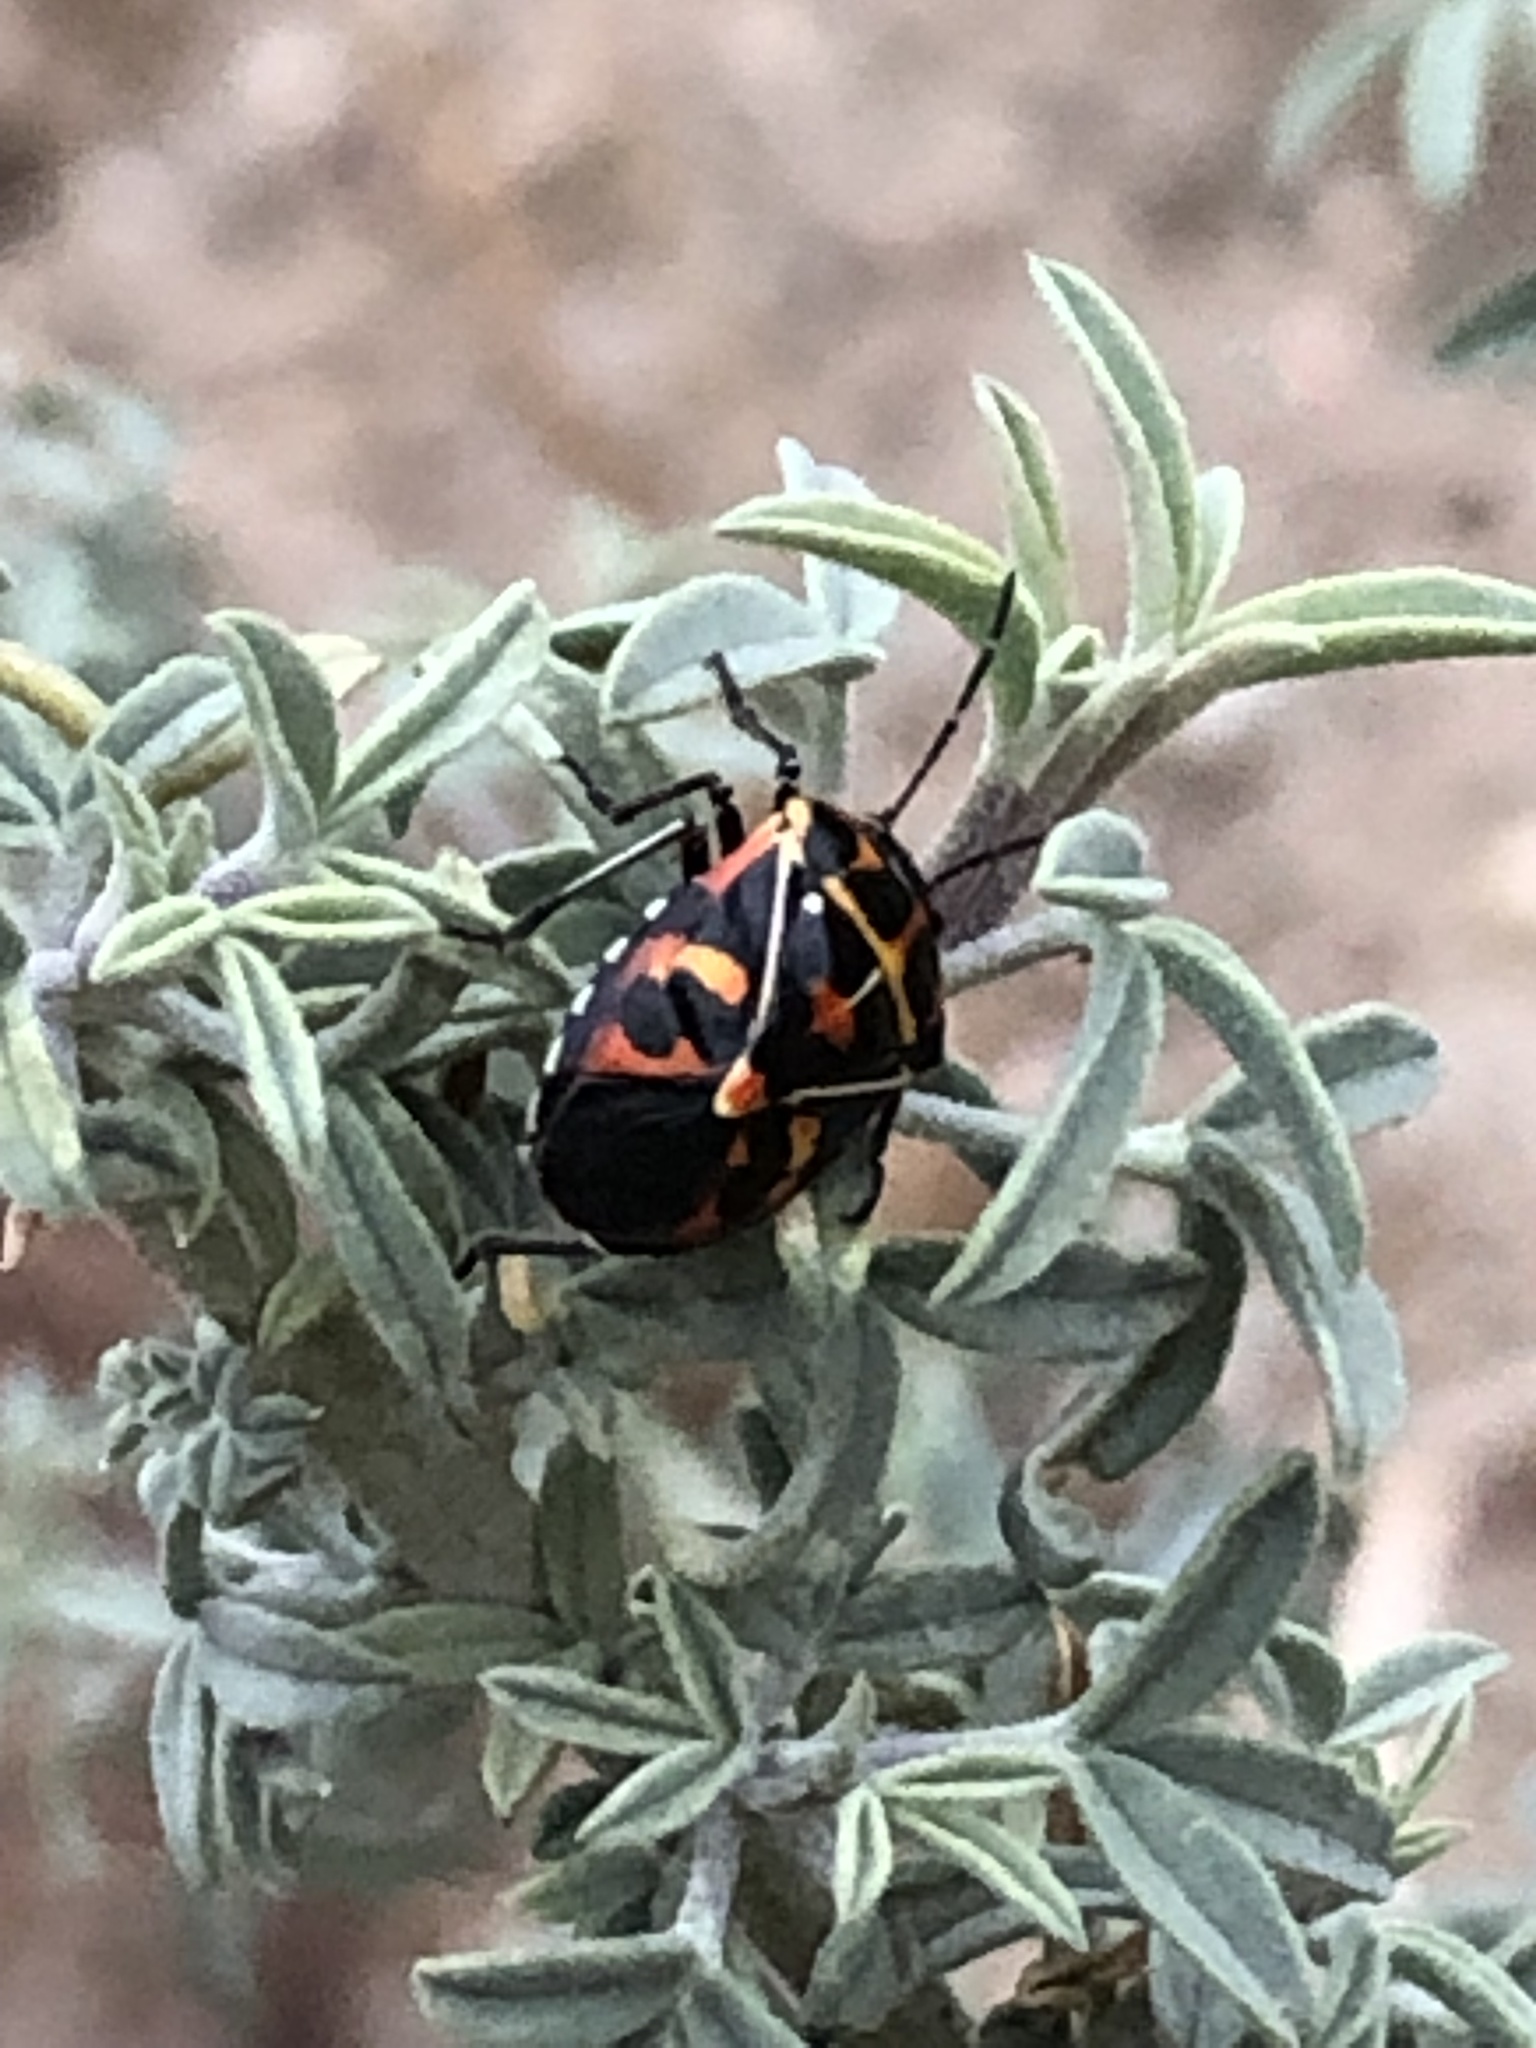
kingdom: Animalia
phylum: Arthropoda
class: Insecta
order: Hemiptera
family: Pentatomidae
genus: Murgantia
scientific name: Murgantia histrionica
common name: Harlequin bug
